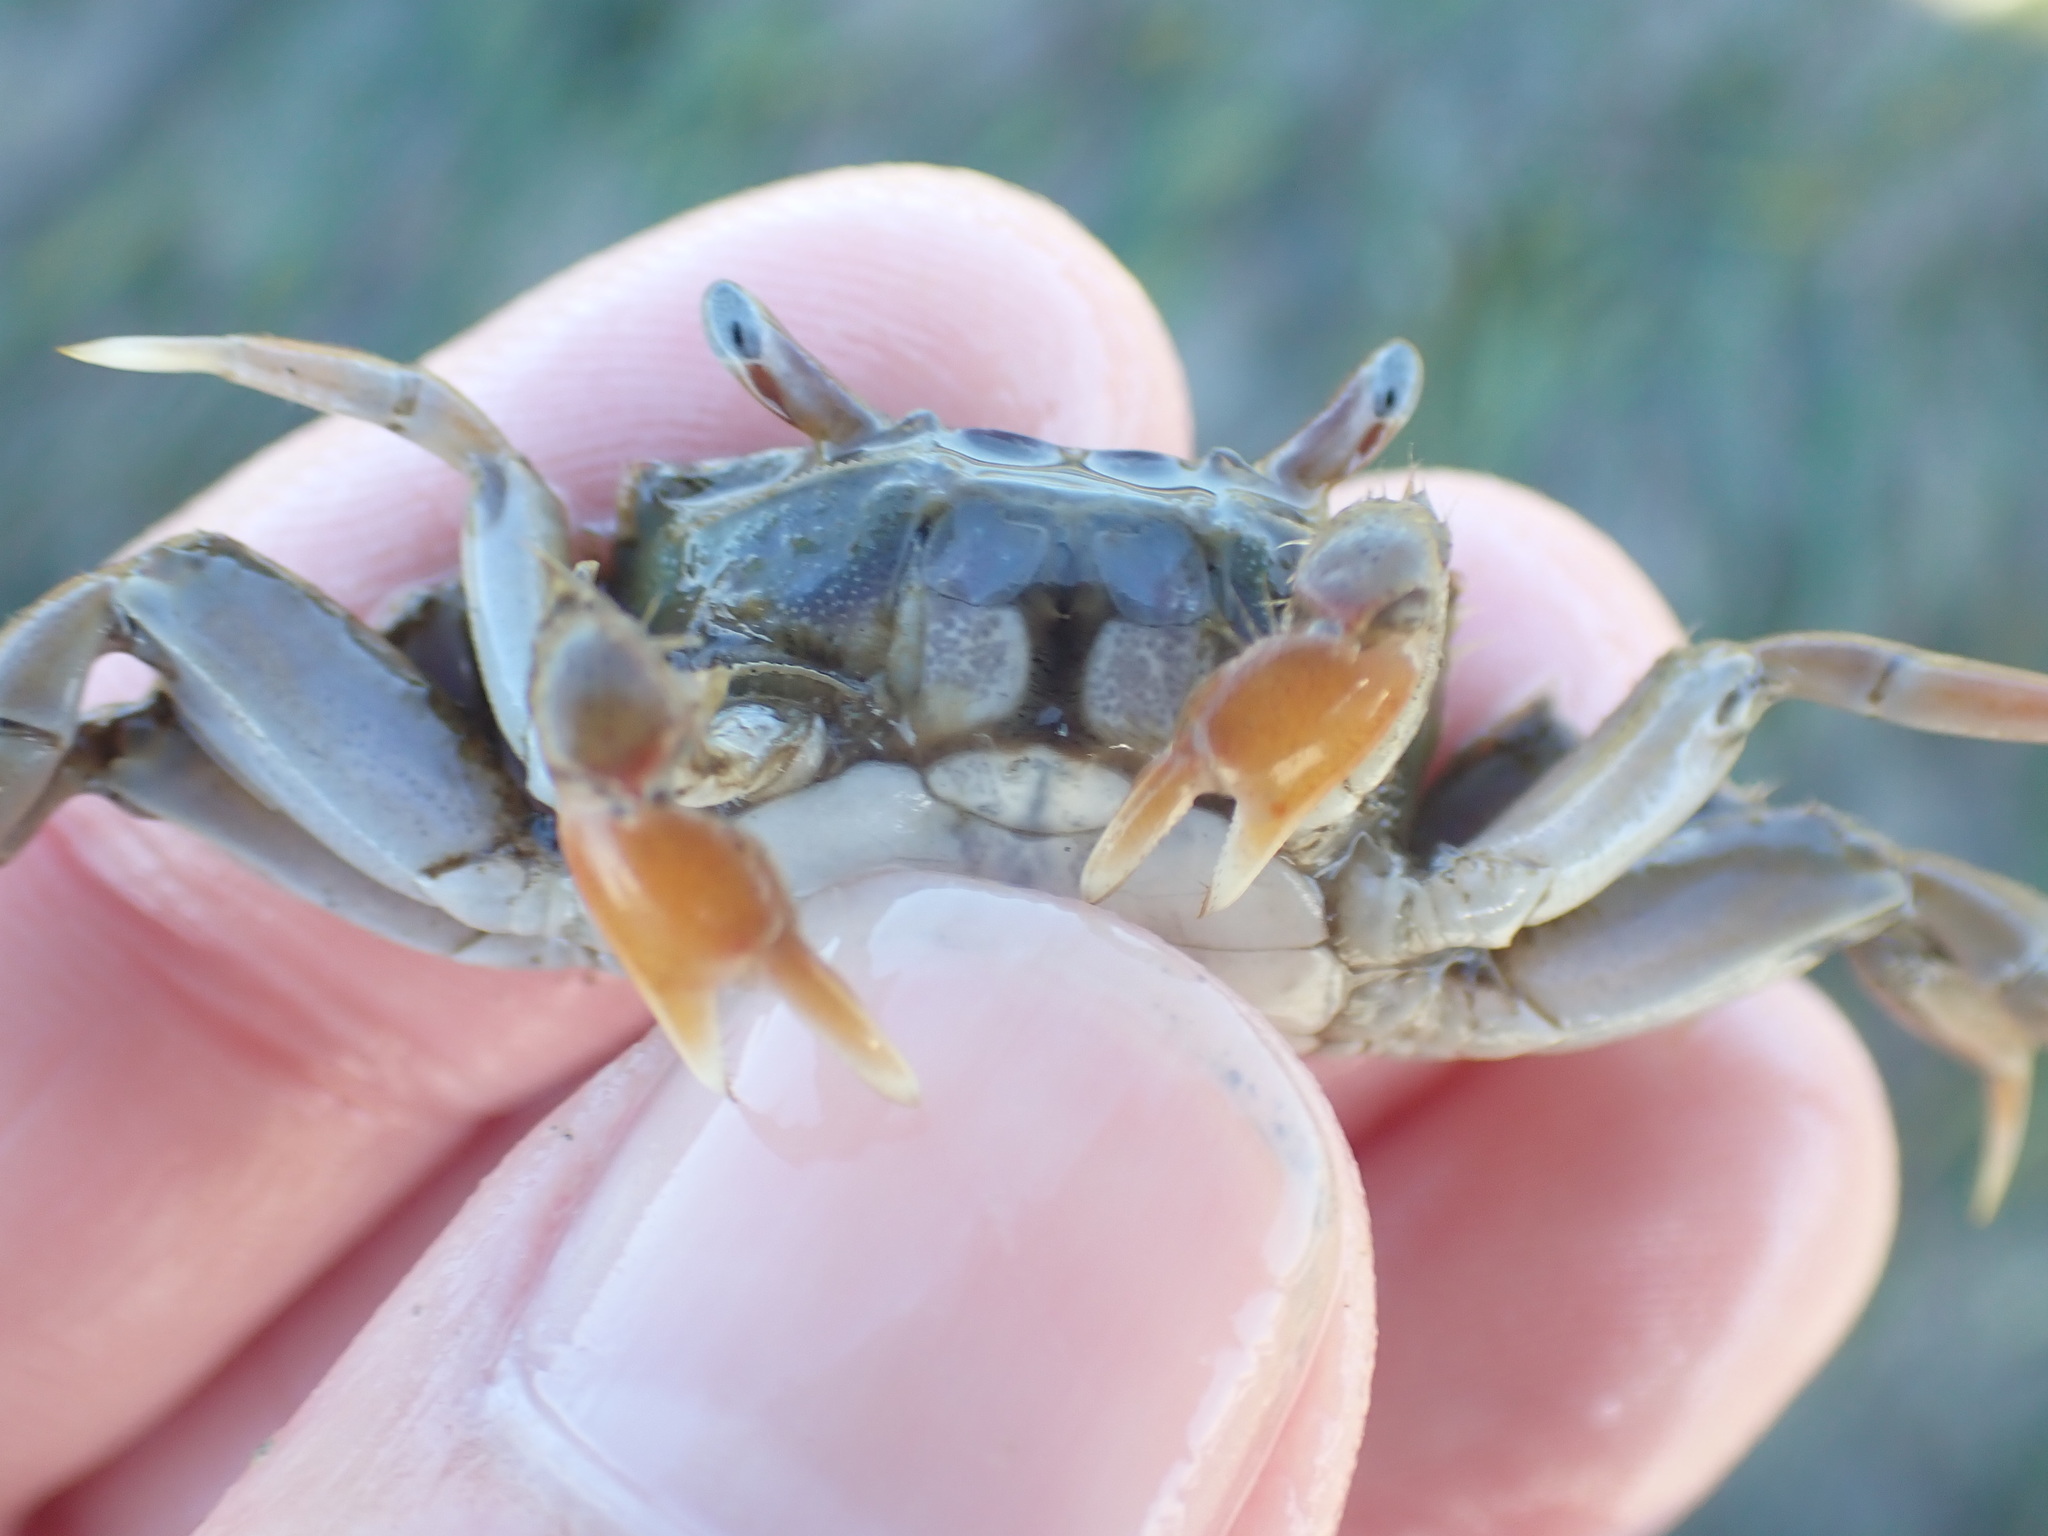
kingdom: Animalia
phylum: Arthropoda
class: Malacostraca
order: Decapoda
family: Macrophthalmidae
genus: Hemiplax
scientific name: Hemiplax hirtipes
